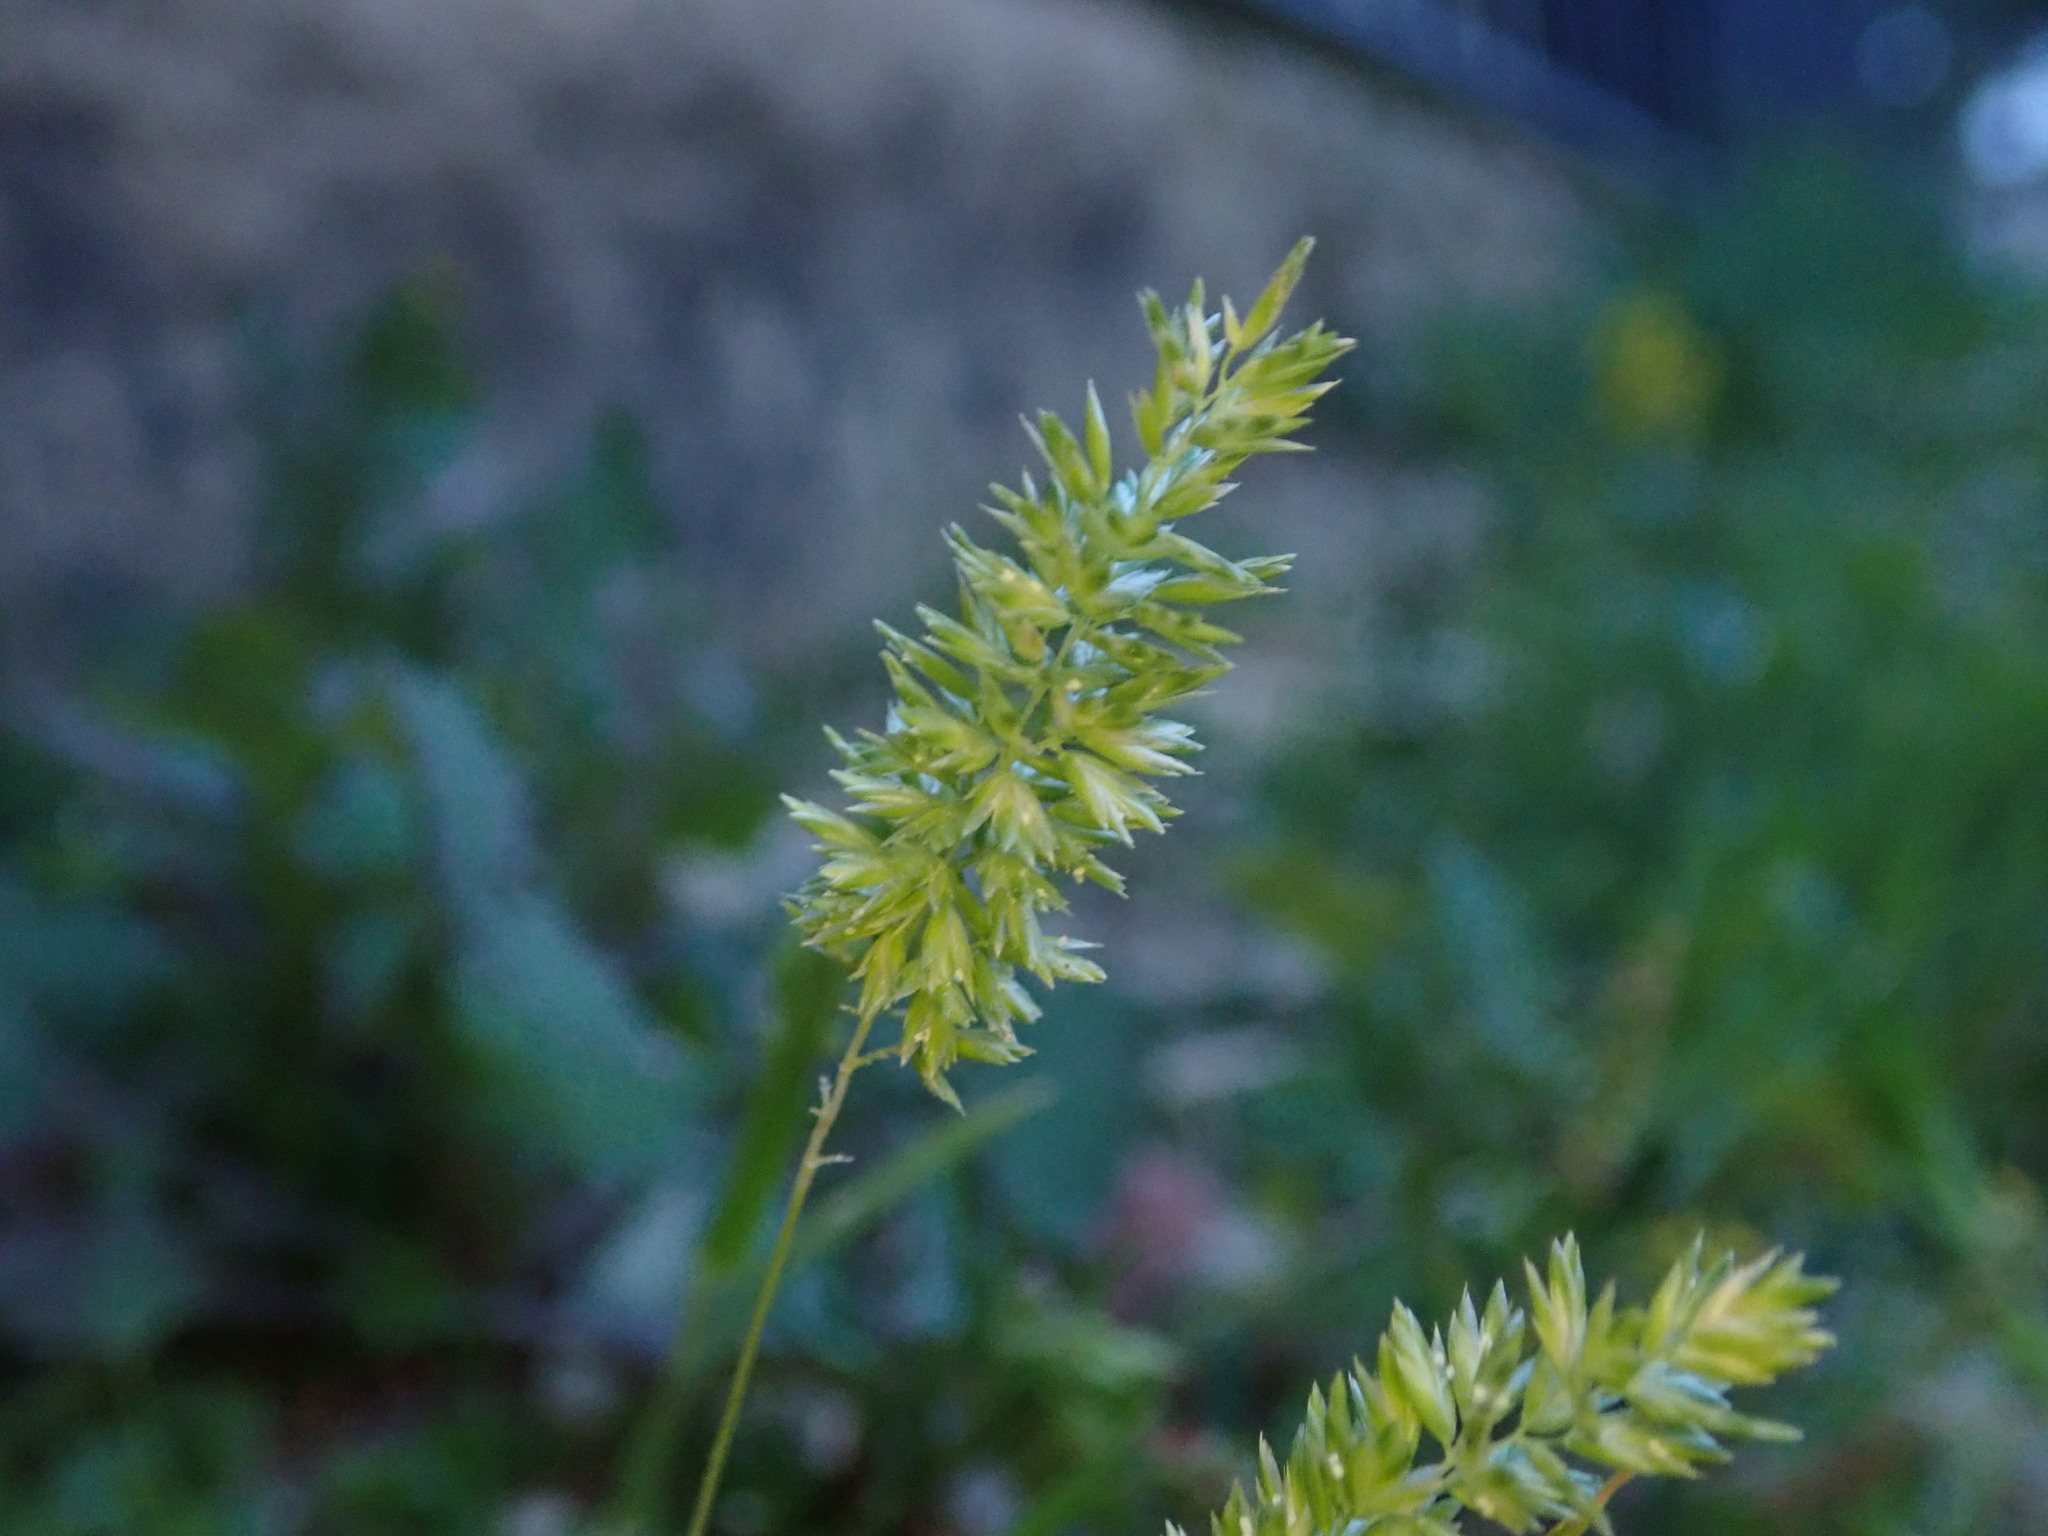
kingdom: Plantae
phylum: Tracheophyta
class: Liliopsida
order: Poales
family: Poaceae
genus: Rostraria
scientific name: Rostraria cristata
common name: Mediterranean hair-grass
